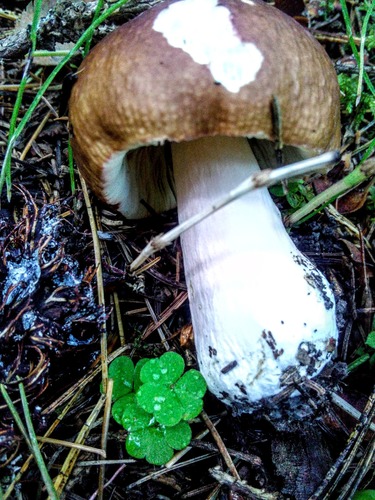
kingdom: Fungi
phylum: Basidiomycota
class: Agaricomycetes
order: Russulales
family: Russulaceae
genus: Russula
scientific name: Russula
